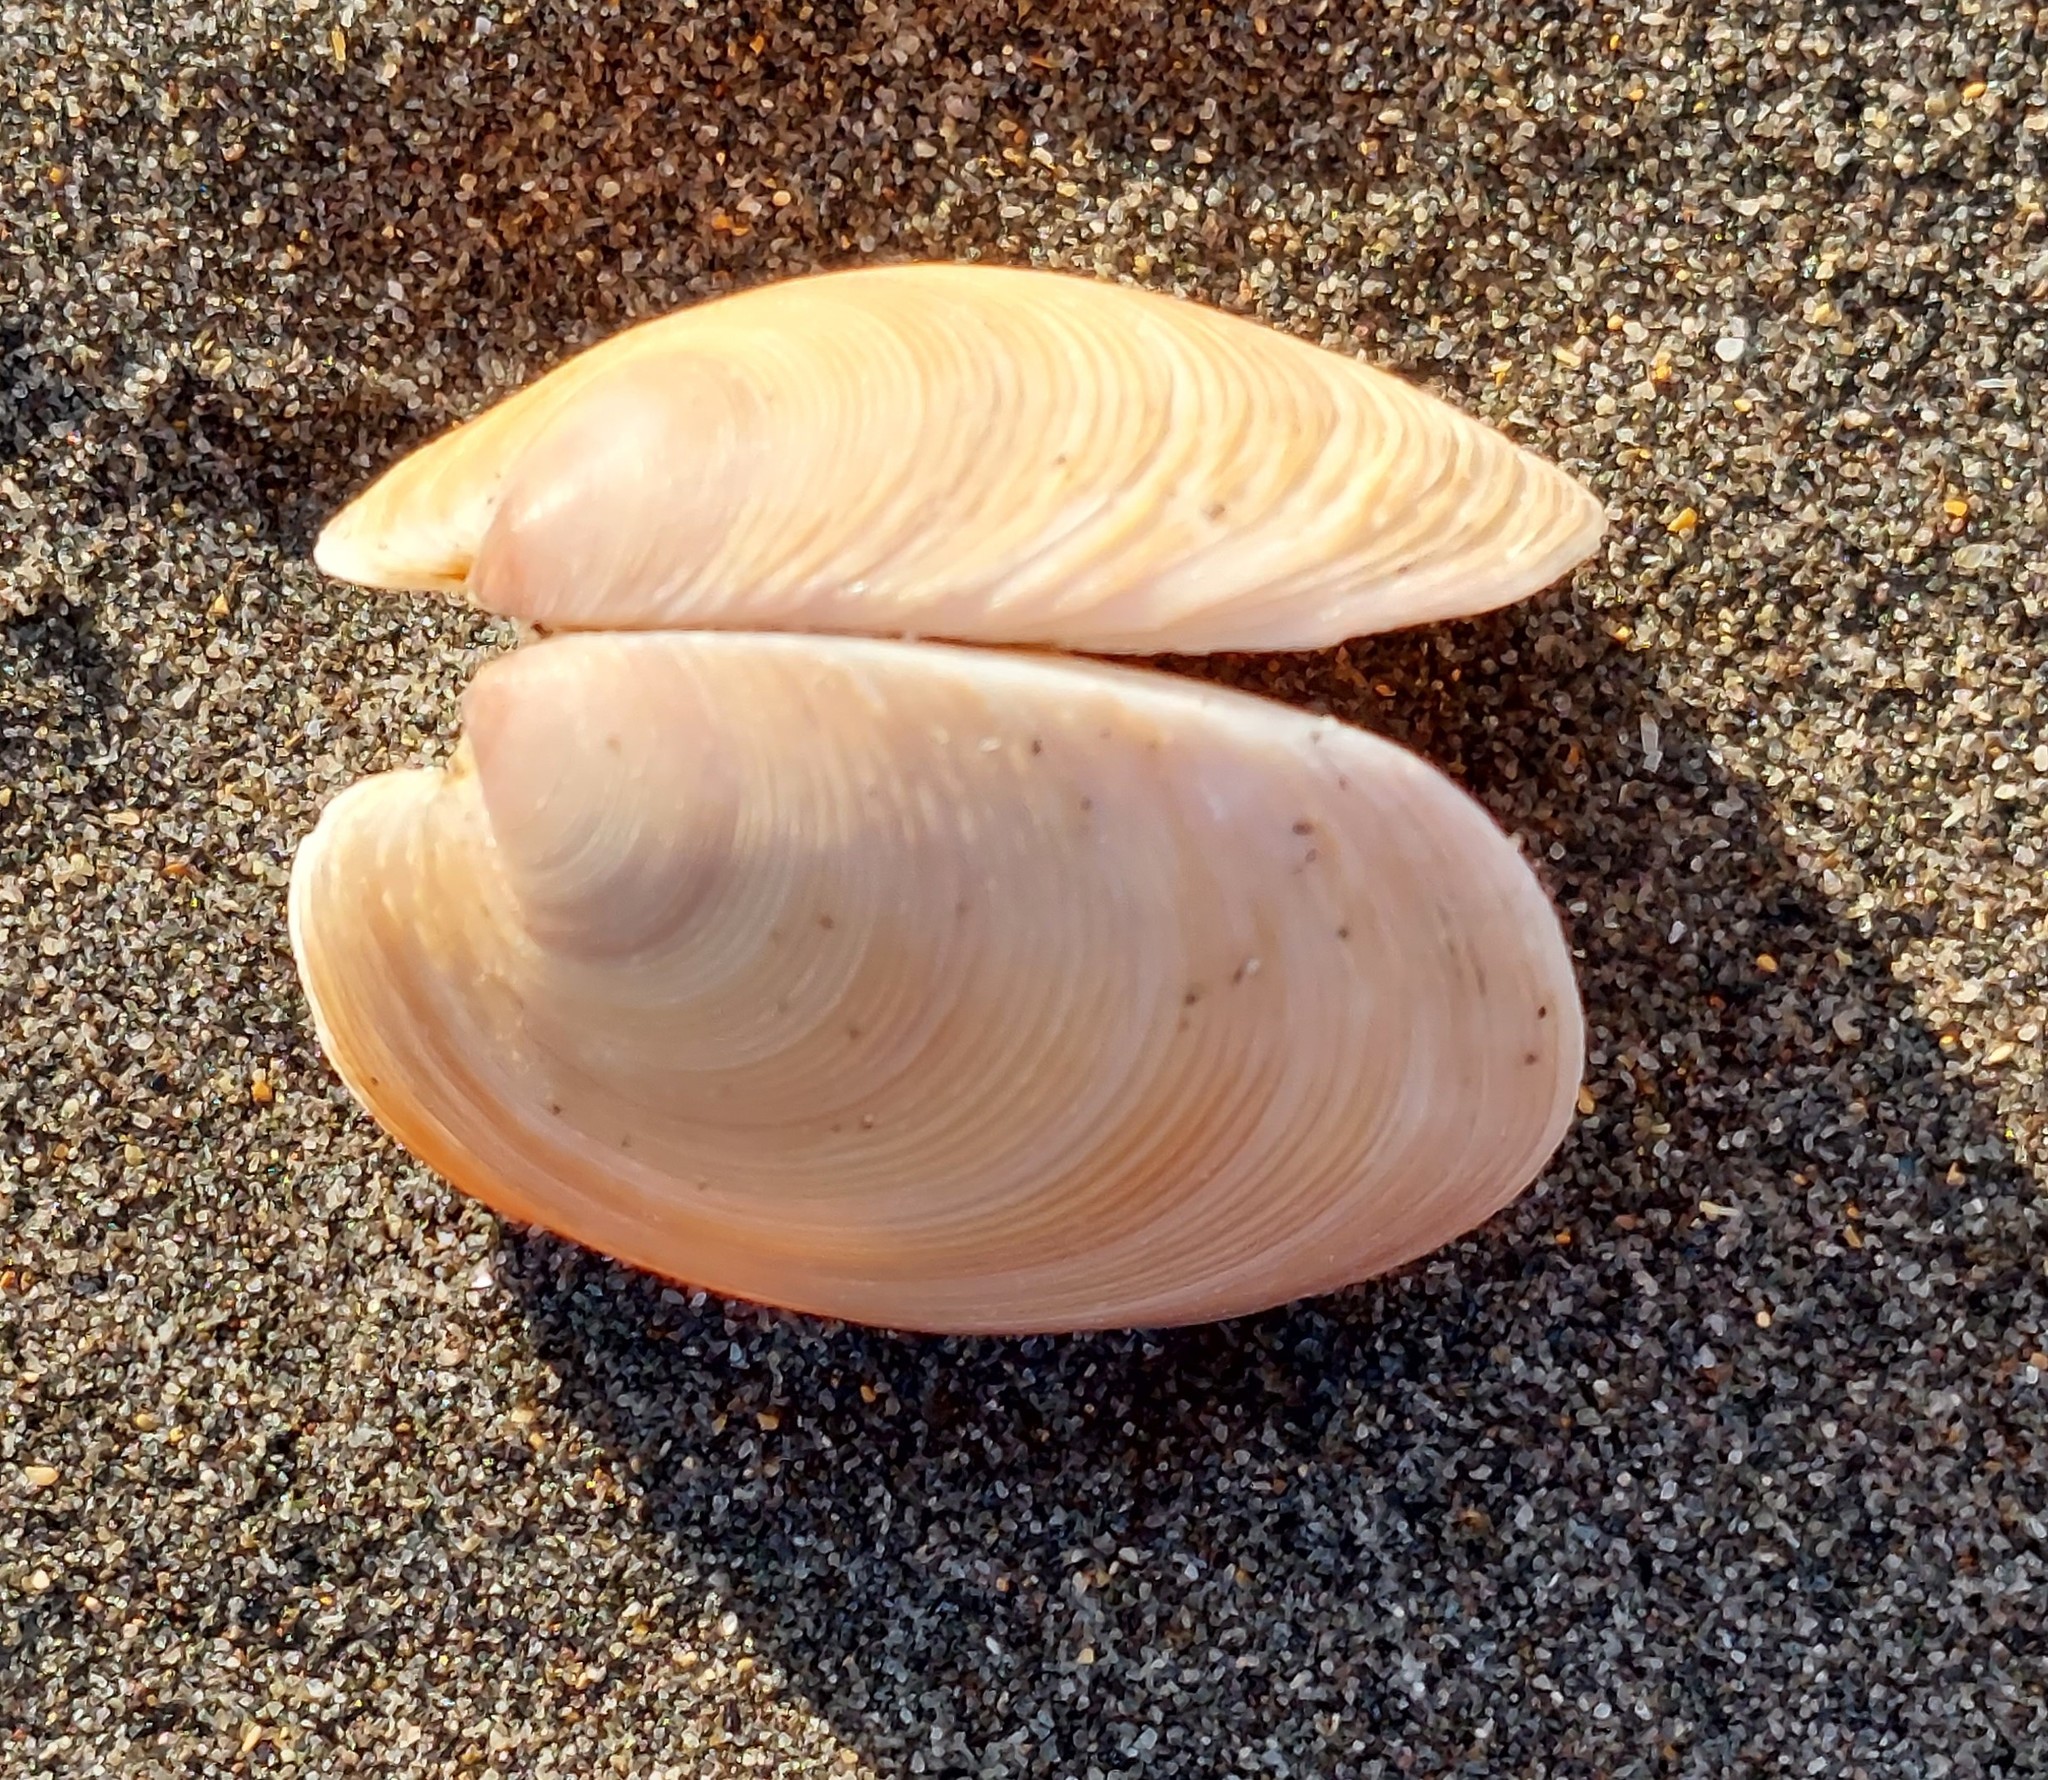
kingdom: Animalia
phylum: Mollusca
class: Bivalvia
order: Venerida
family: Veneridae
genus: Dosinia
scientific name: Dosinia anus
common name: Old-woman dosinia
